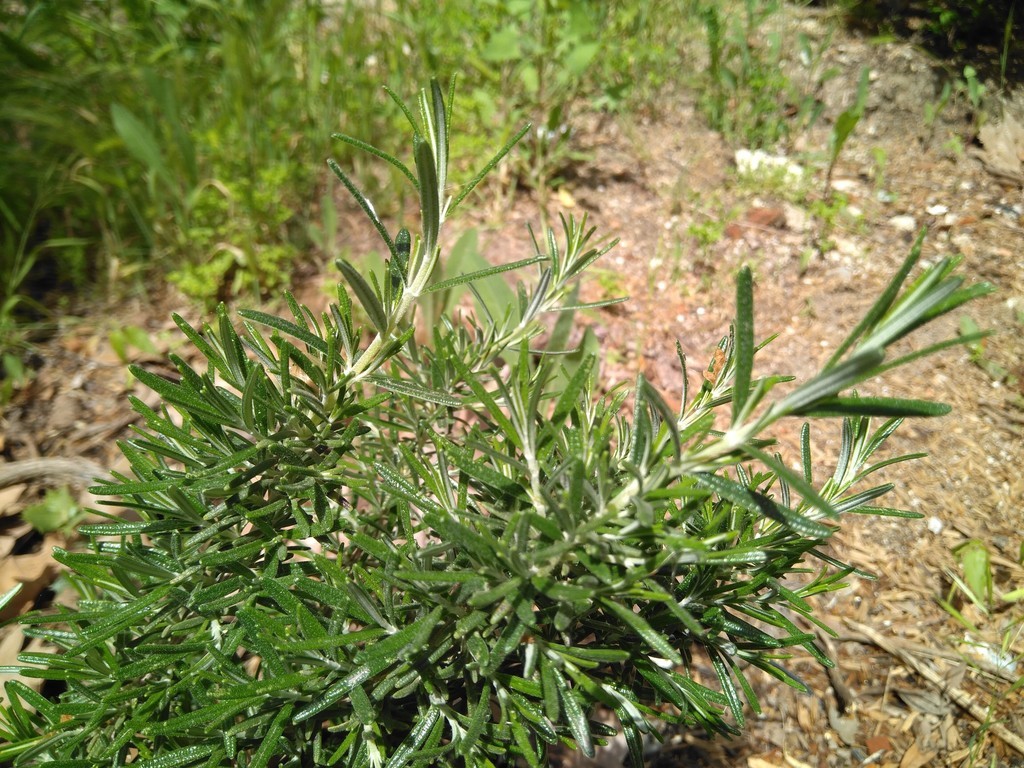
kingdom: Plantae
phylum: Tracheophyta
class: Magnoliopsida
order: Lamiales
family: Lamiaceae
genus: Salvia
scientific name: Salvia rosmarinus
